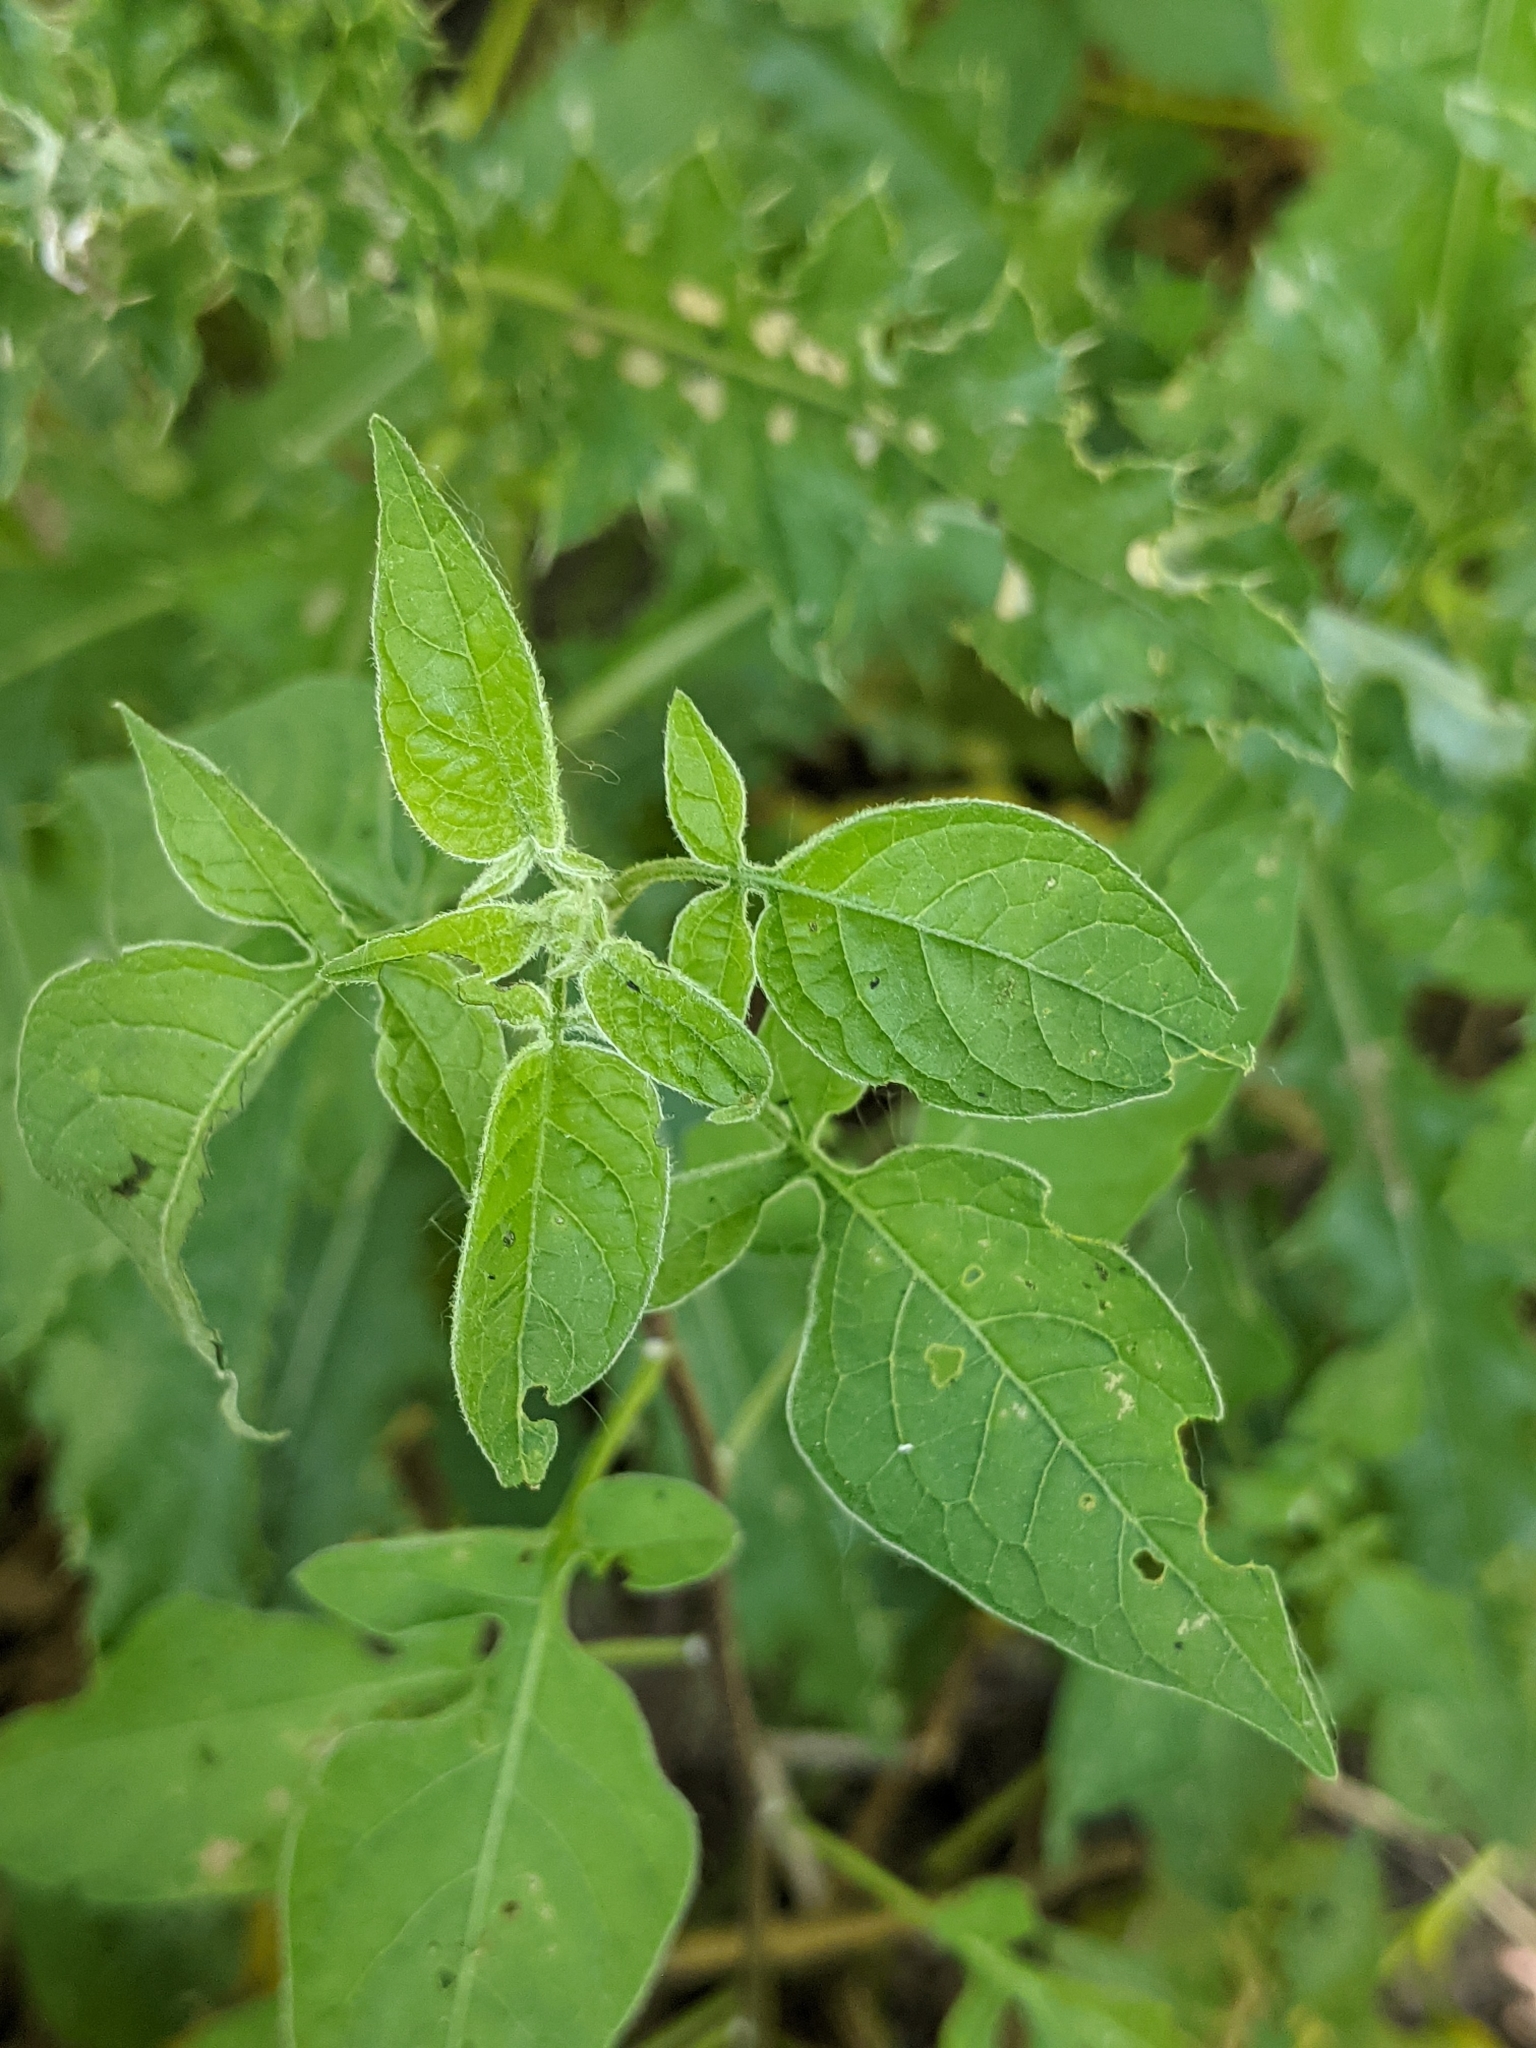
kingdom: Plantae
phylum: Tracheophyta
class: Magnoliopsida
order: Solanales
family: Solanaceae
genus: Solanum
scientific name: Solanum dulcamara
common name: Climbing nightshade
